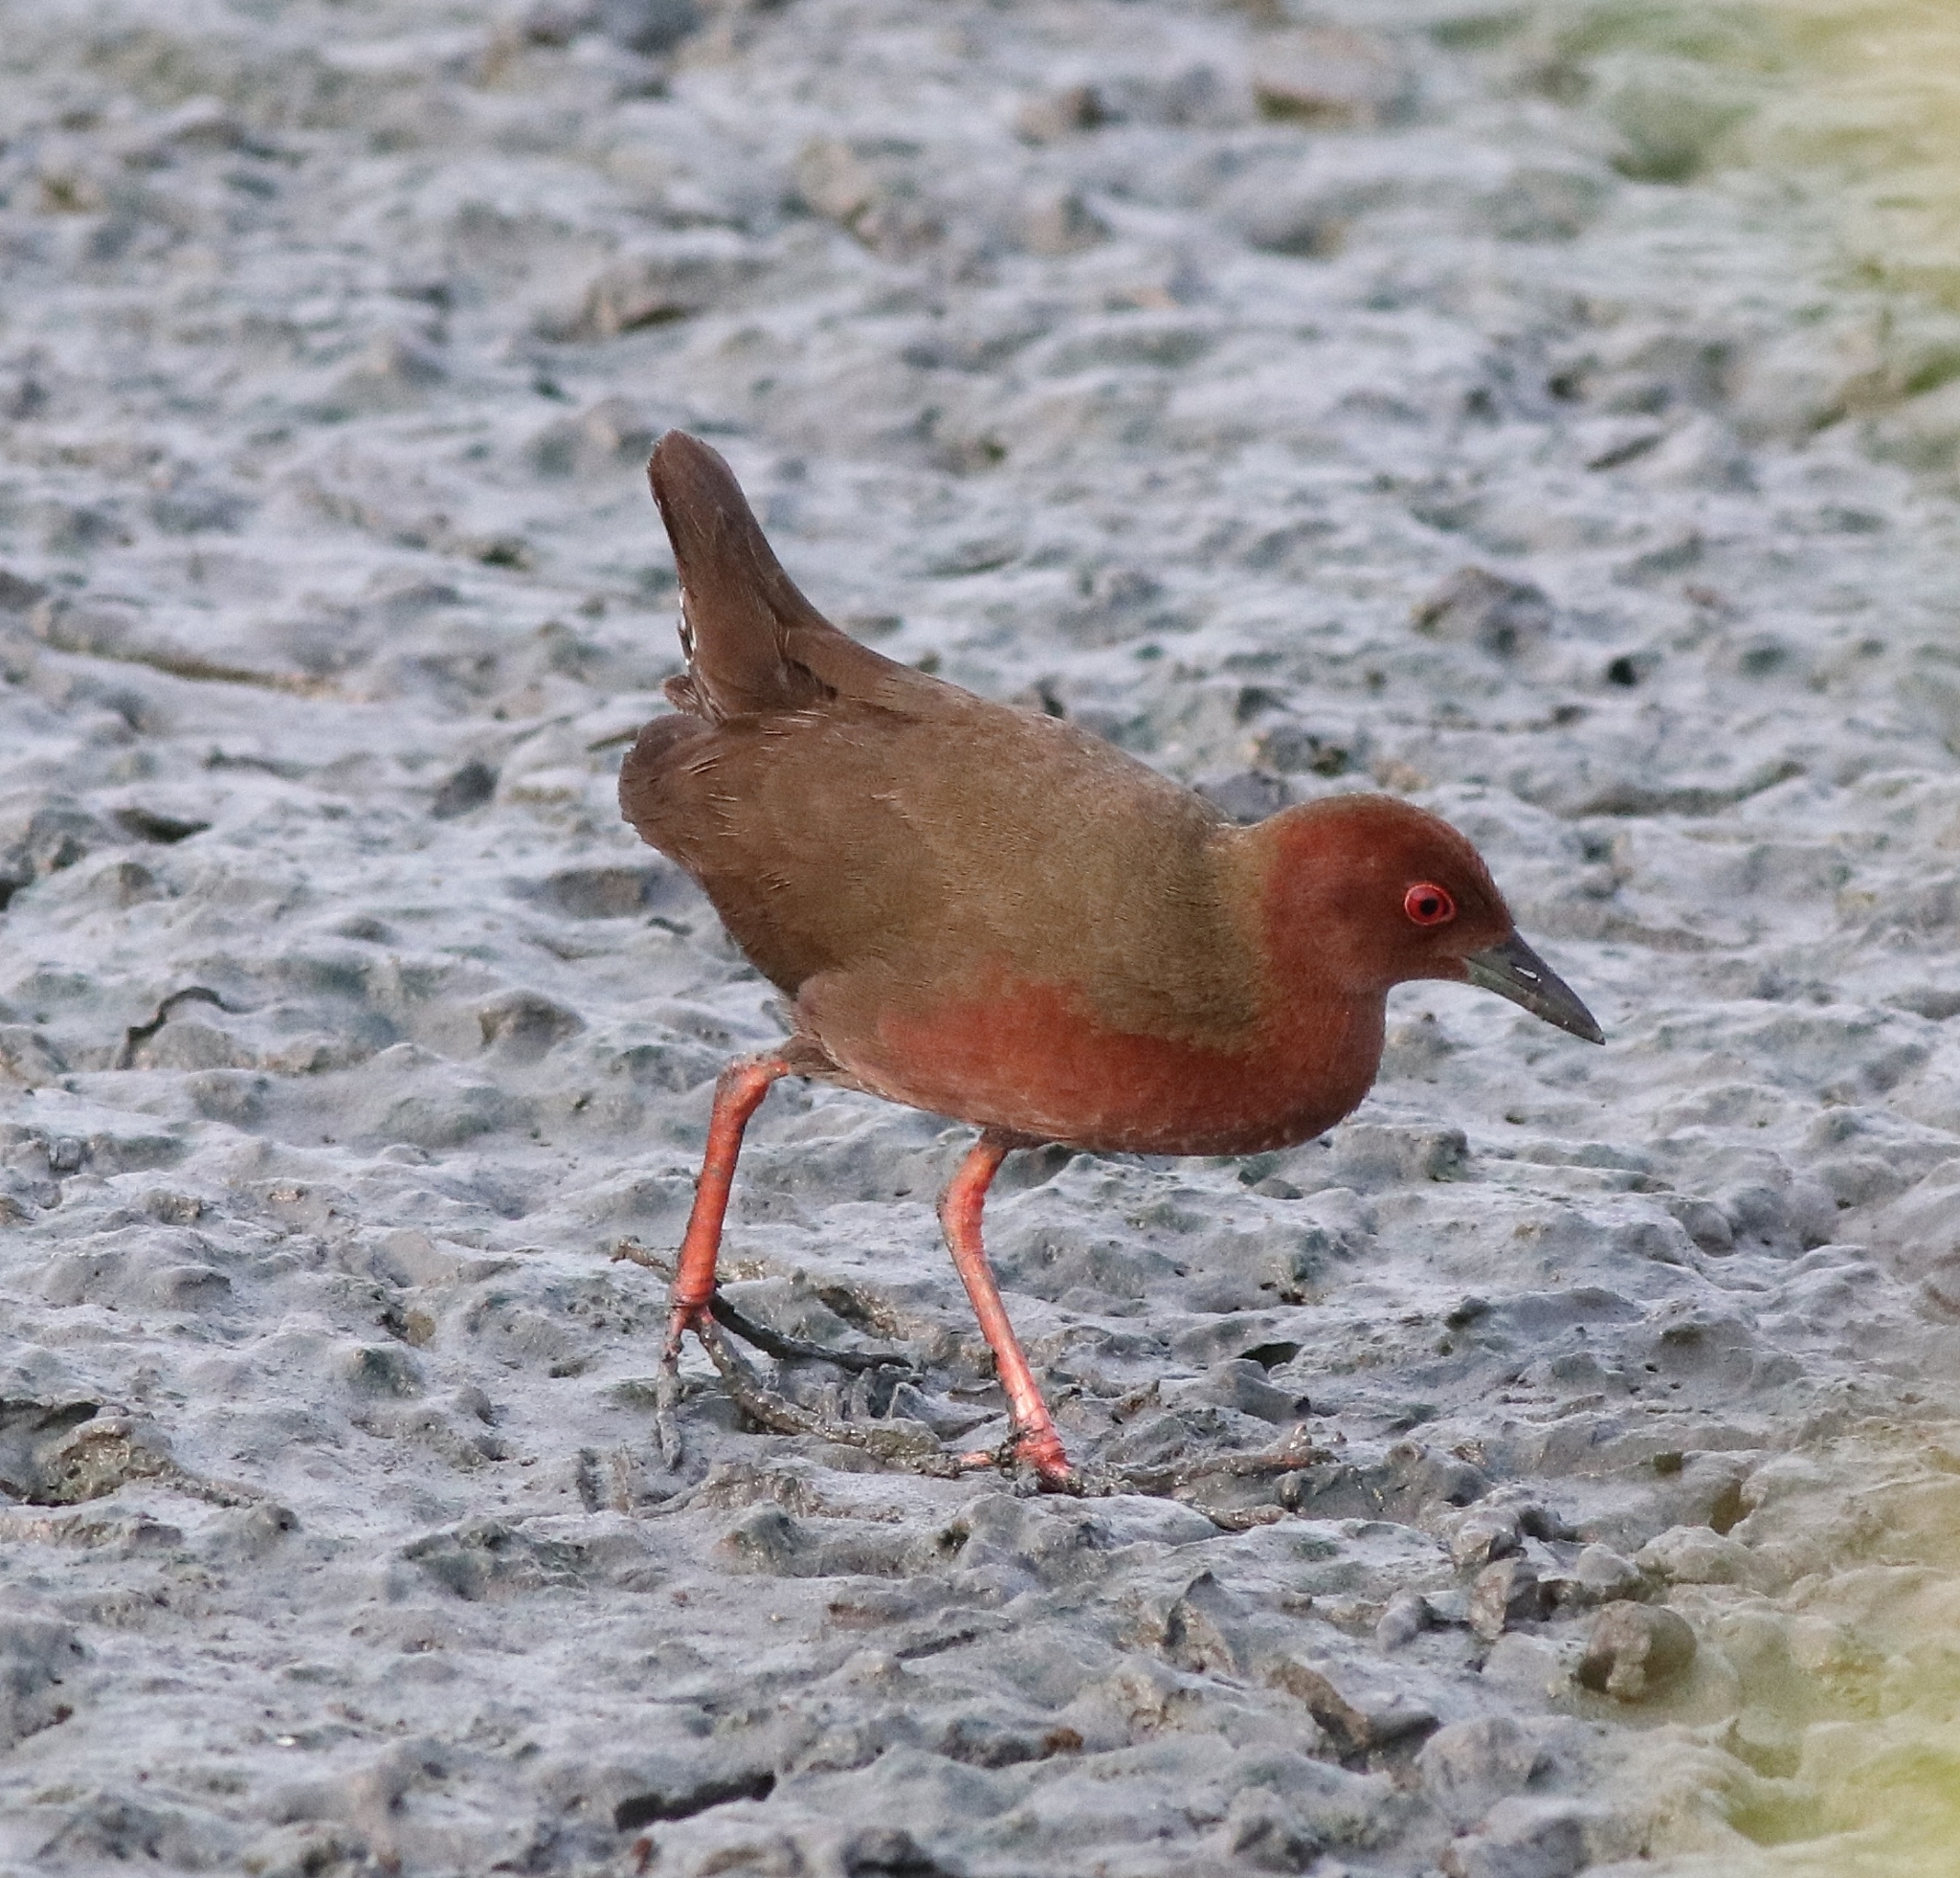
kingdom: Animalia
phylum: Chordata
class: Aves
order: Gruiformes
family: Rallidae
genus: Porzana
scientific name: Porzana fusca
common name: Ruddy-breasted crake
